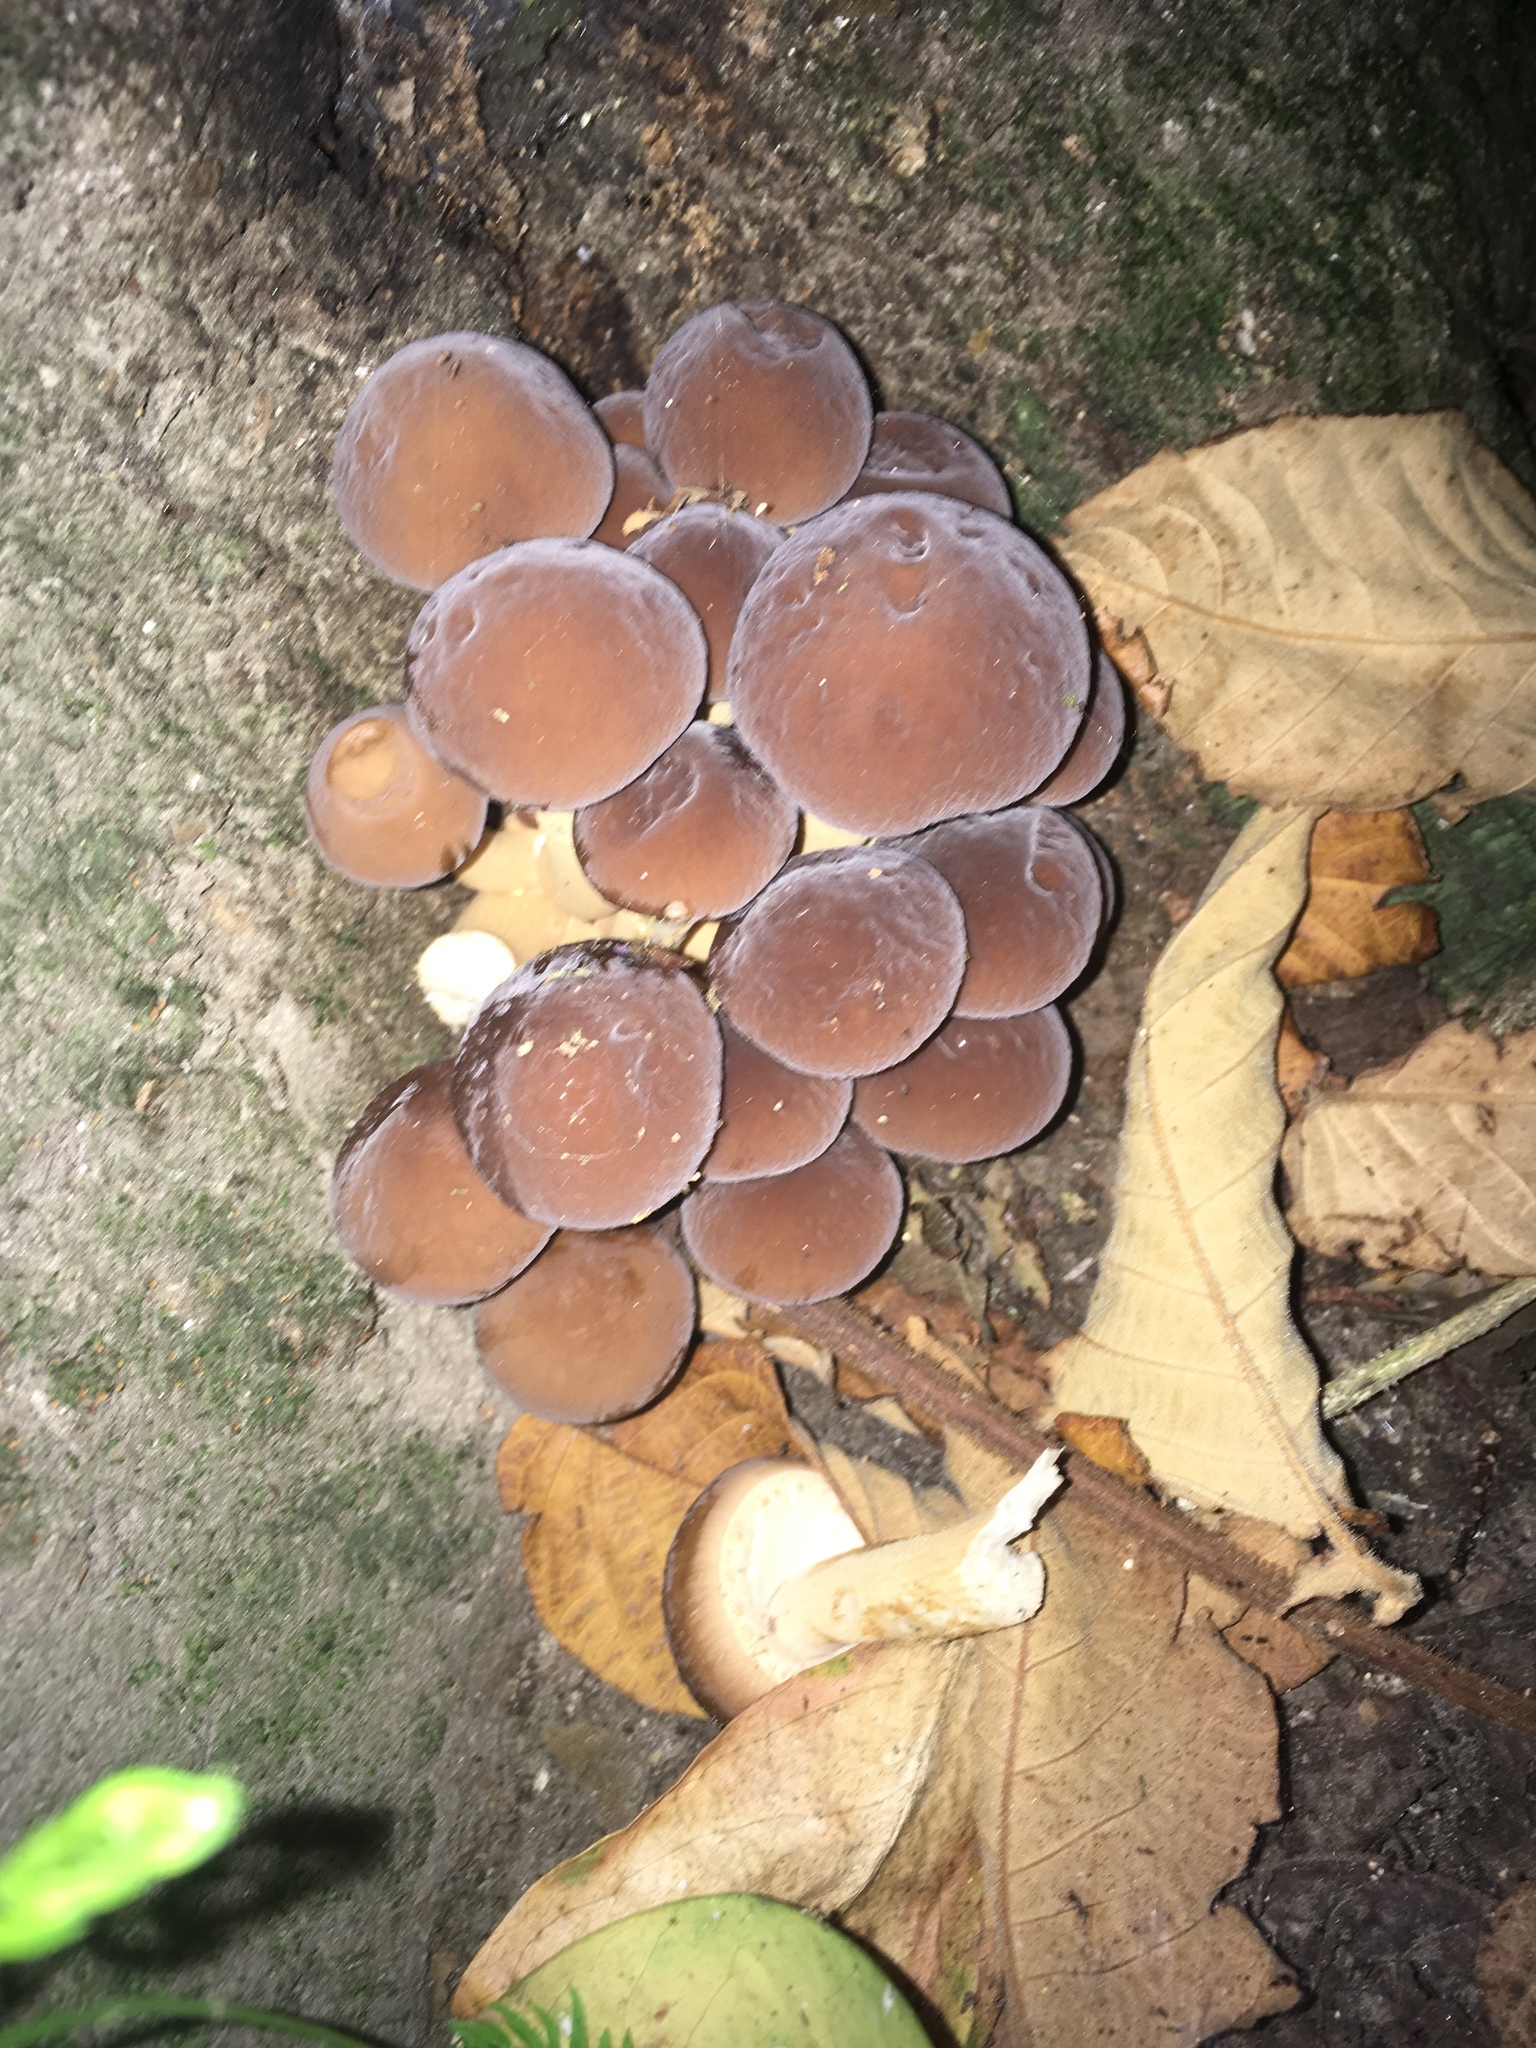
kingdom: Fungi
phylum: Basidiomycota
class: Agaricomycetes
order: Agaricales
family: Tubariaceae
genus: Cyclocybe
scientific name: Cyclocybe parasitica
